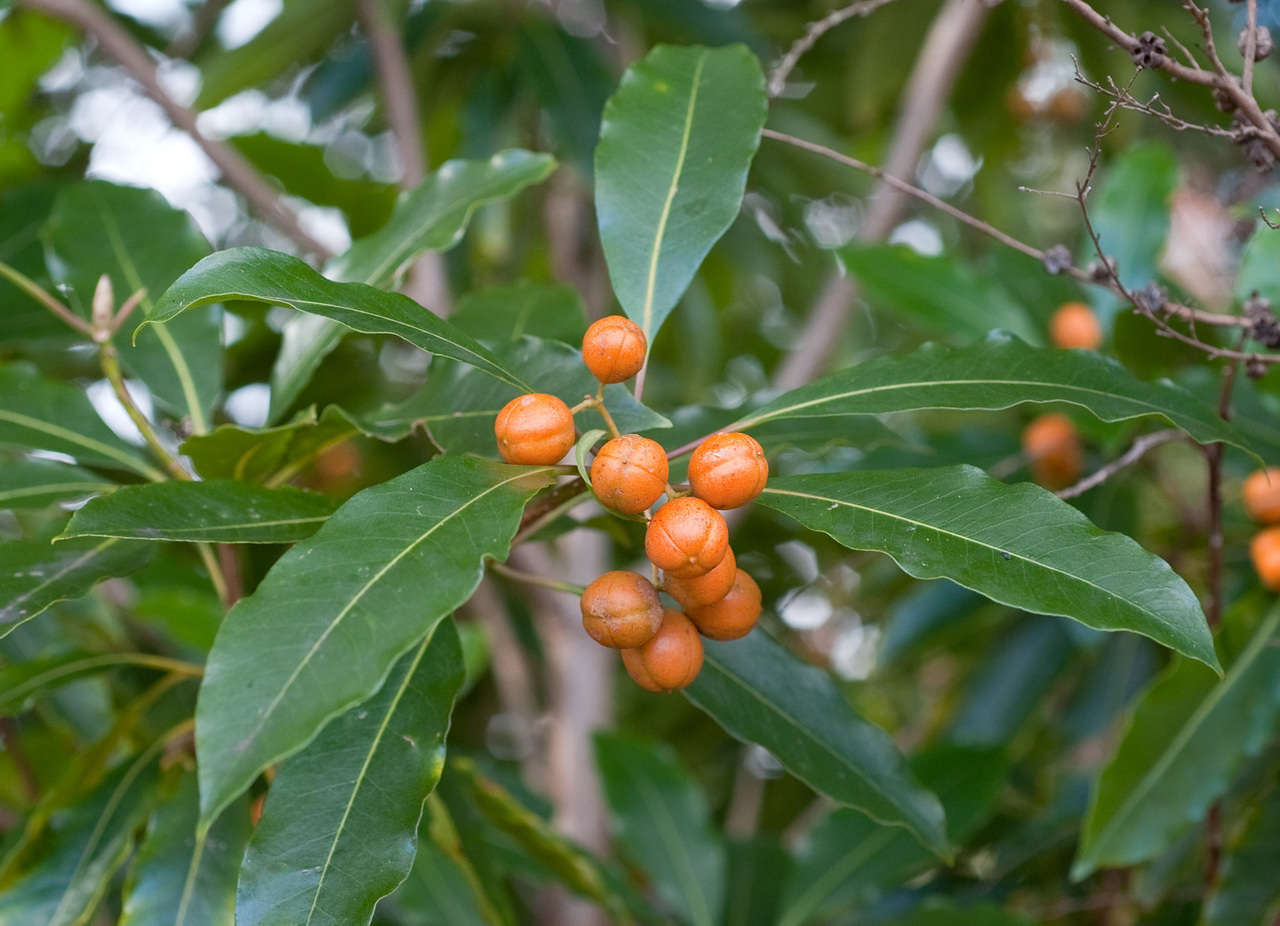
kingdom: Plantae
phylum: Tracheophyta
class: Magnoliopsida
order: Apiales
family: Pittosporaceae
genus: Pittosporum
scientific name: Pittosporum undulatum
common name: Australian cheesewood
